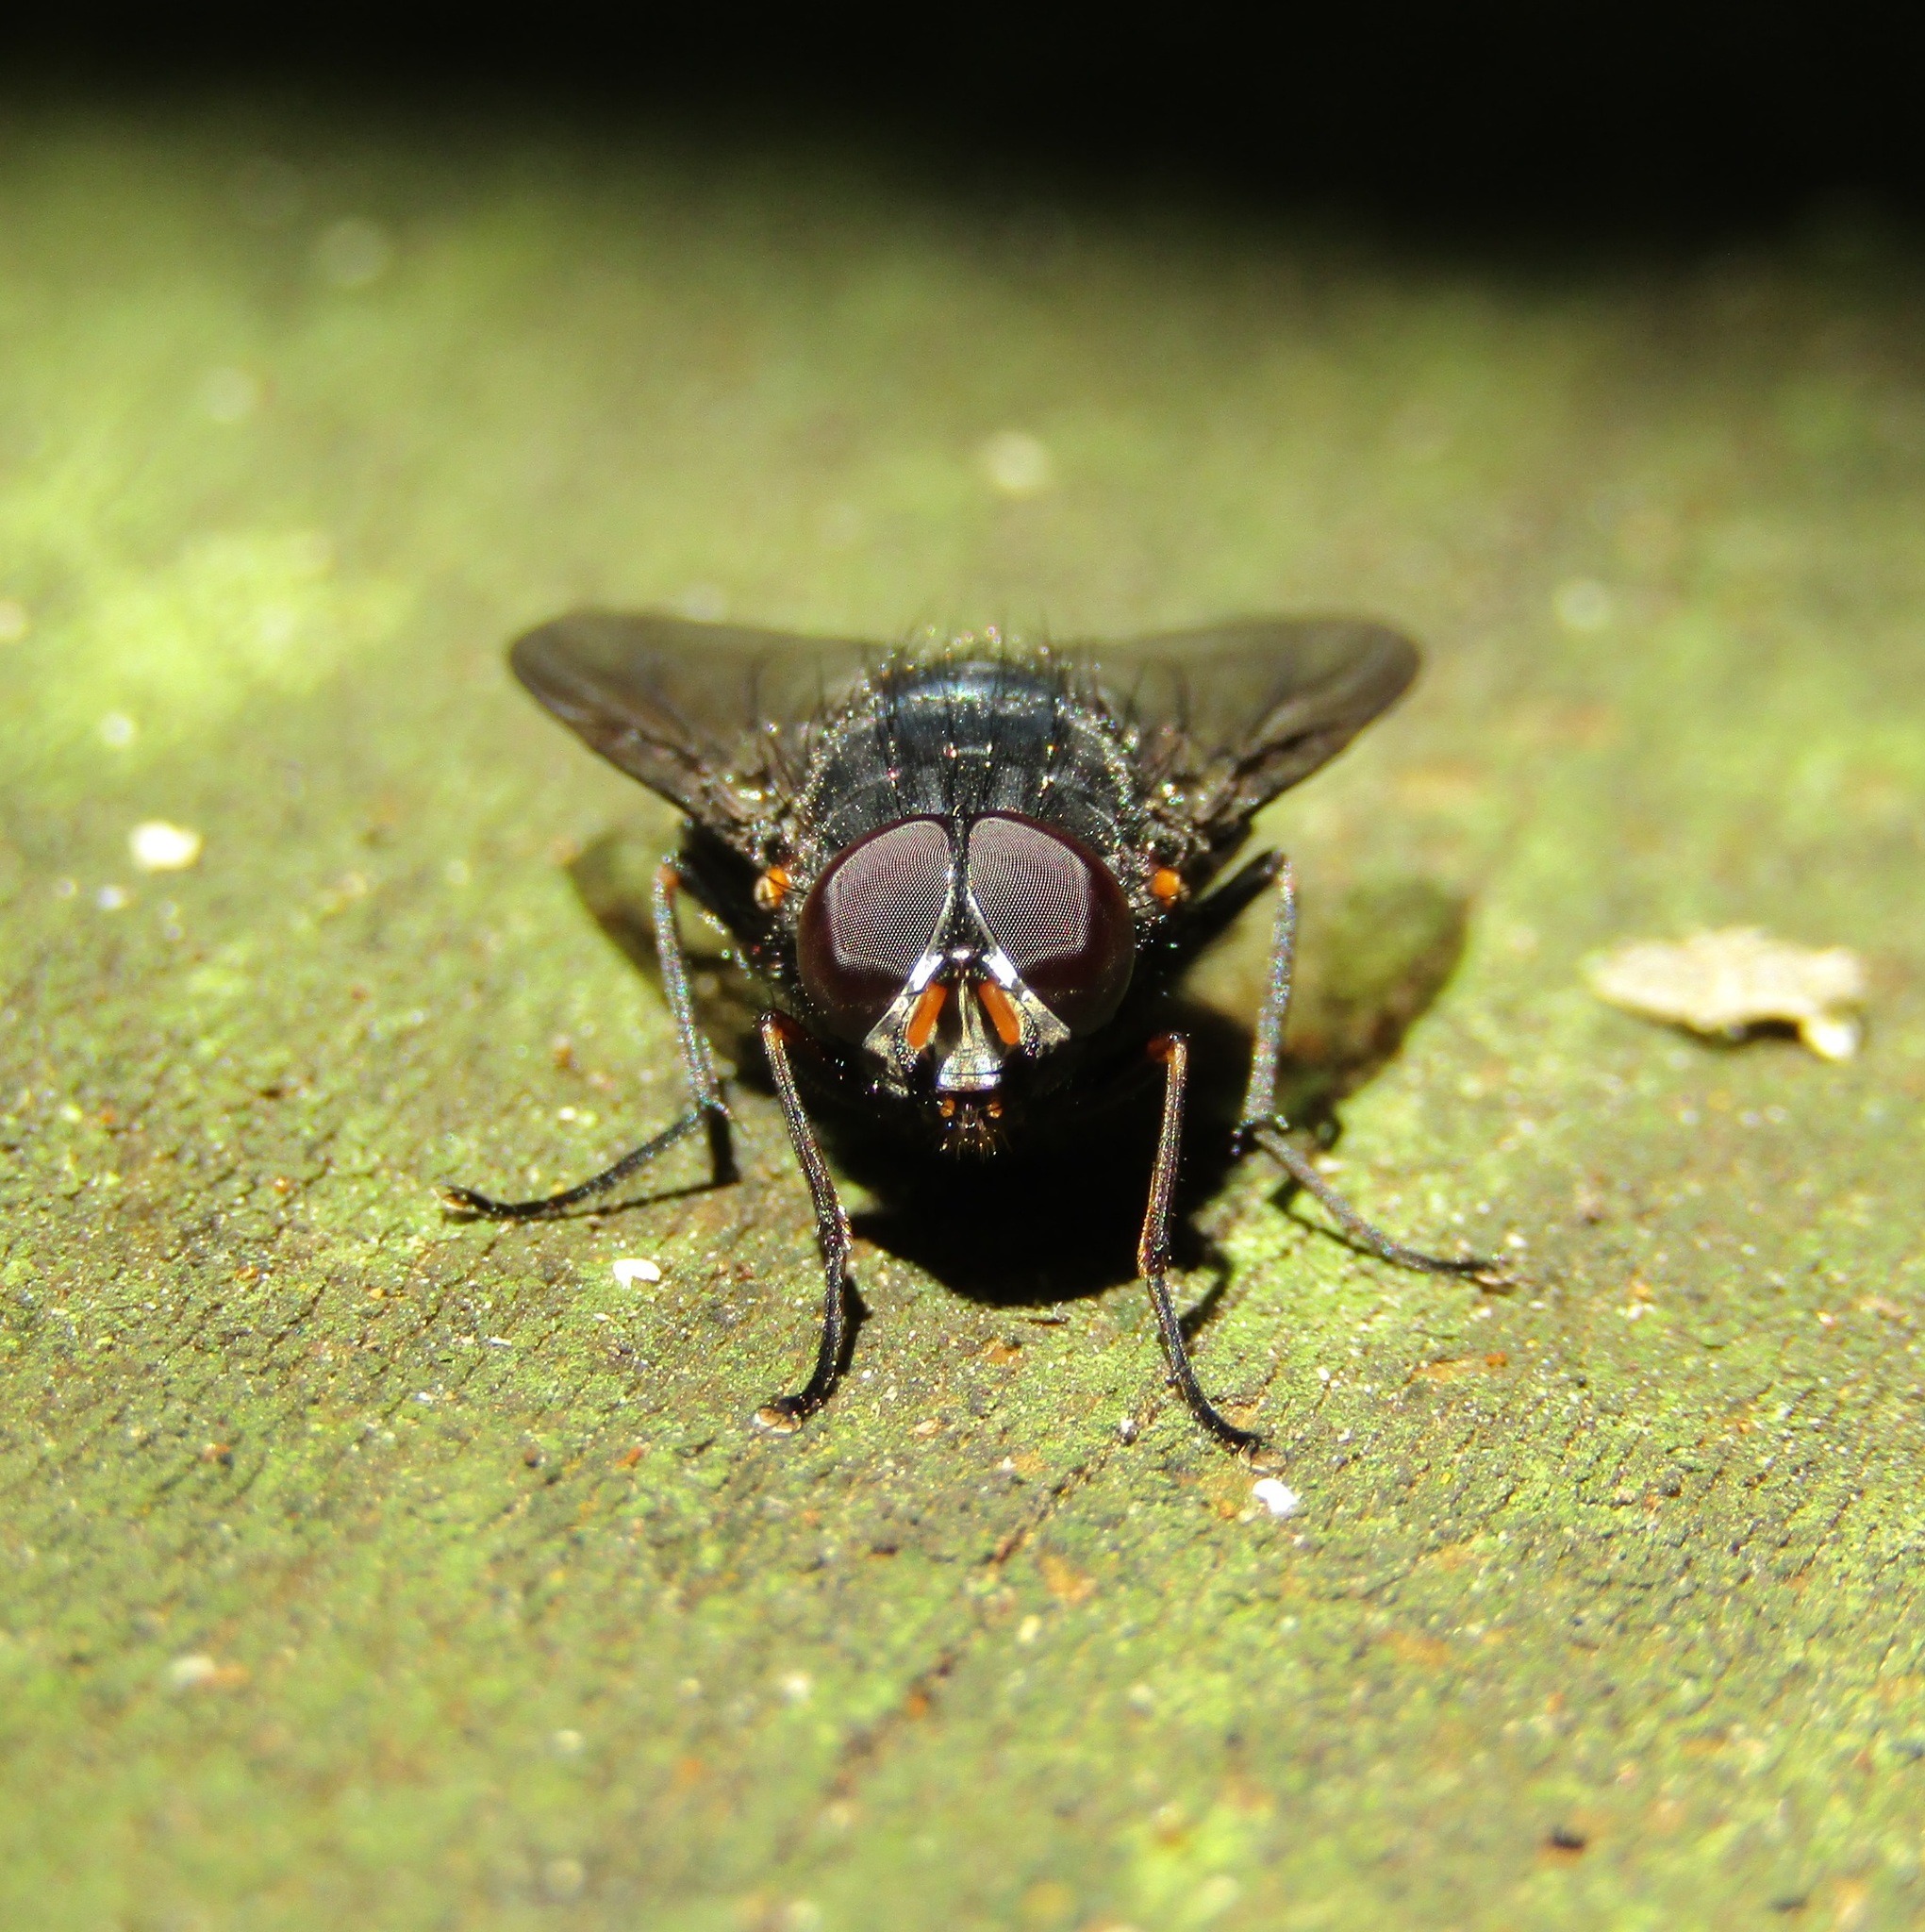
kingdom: Animalia
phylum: Arthropoda
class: Insecta
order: Diptera
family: Muscidae
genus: Calliphoroides
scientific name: Calliphoroides antennatis
